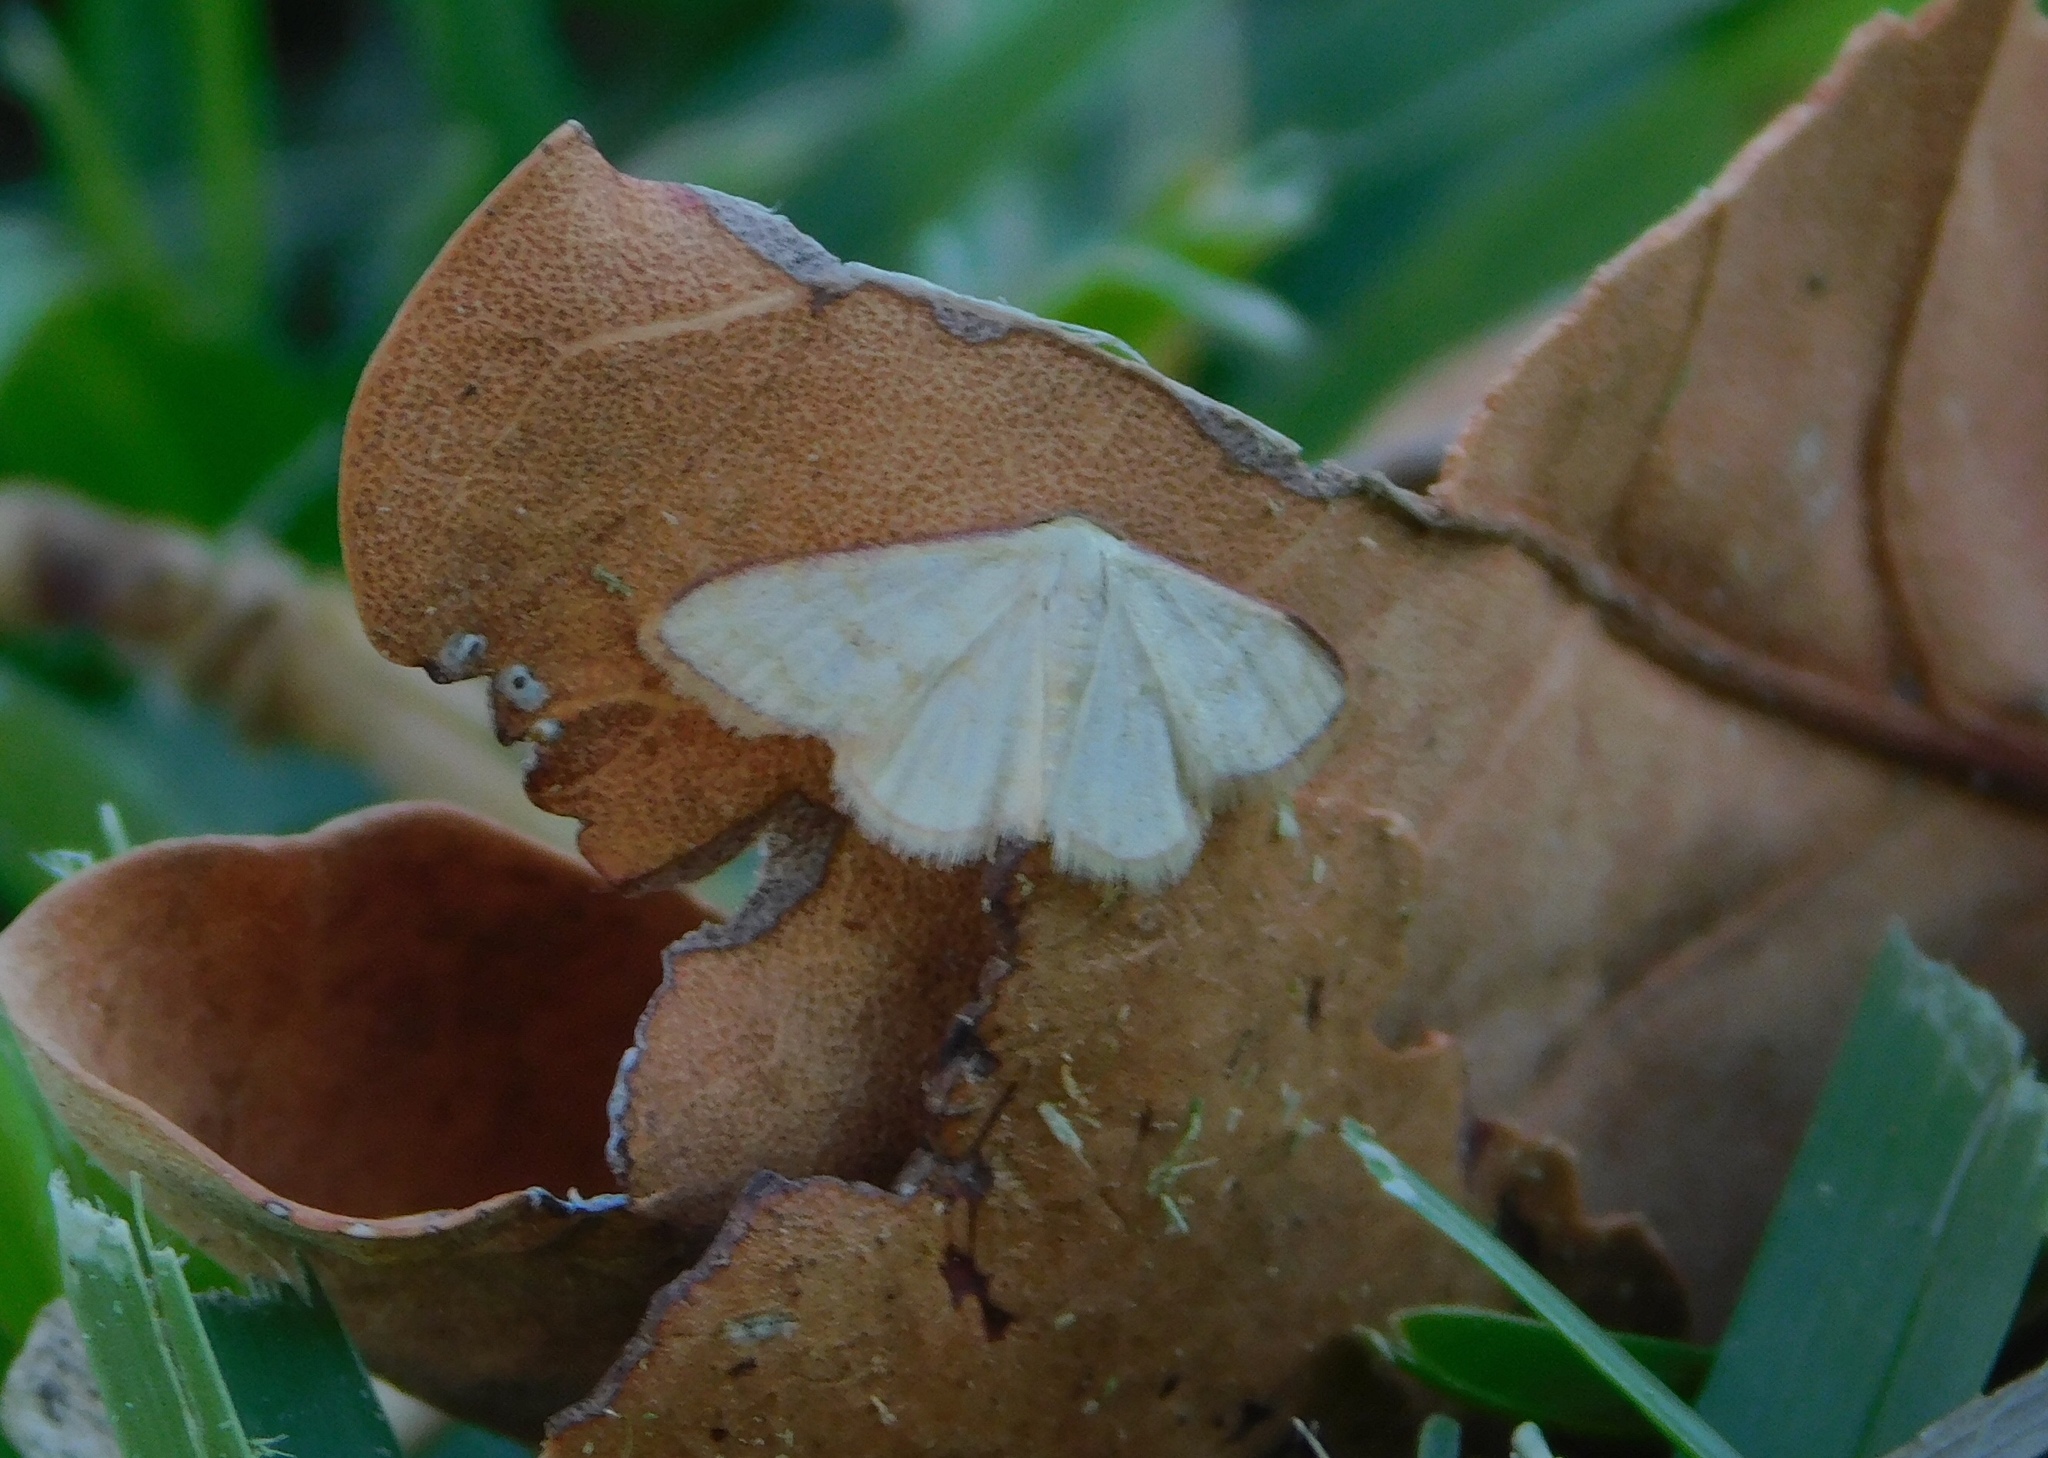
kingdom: Animalia
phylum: Arthropoda
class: Insecta
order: Lepidoptera
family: Geometridae
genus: Leptostales
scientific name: Leptostales pannaria
